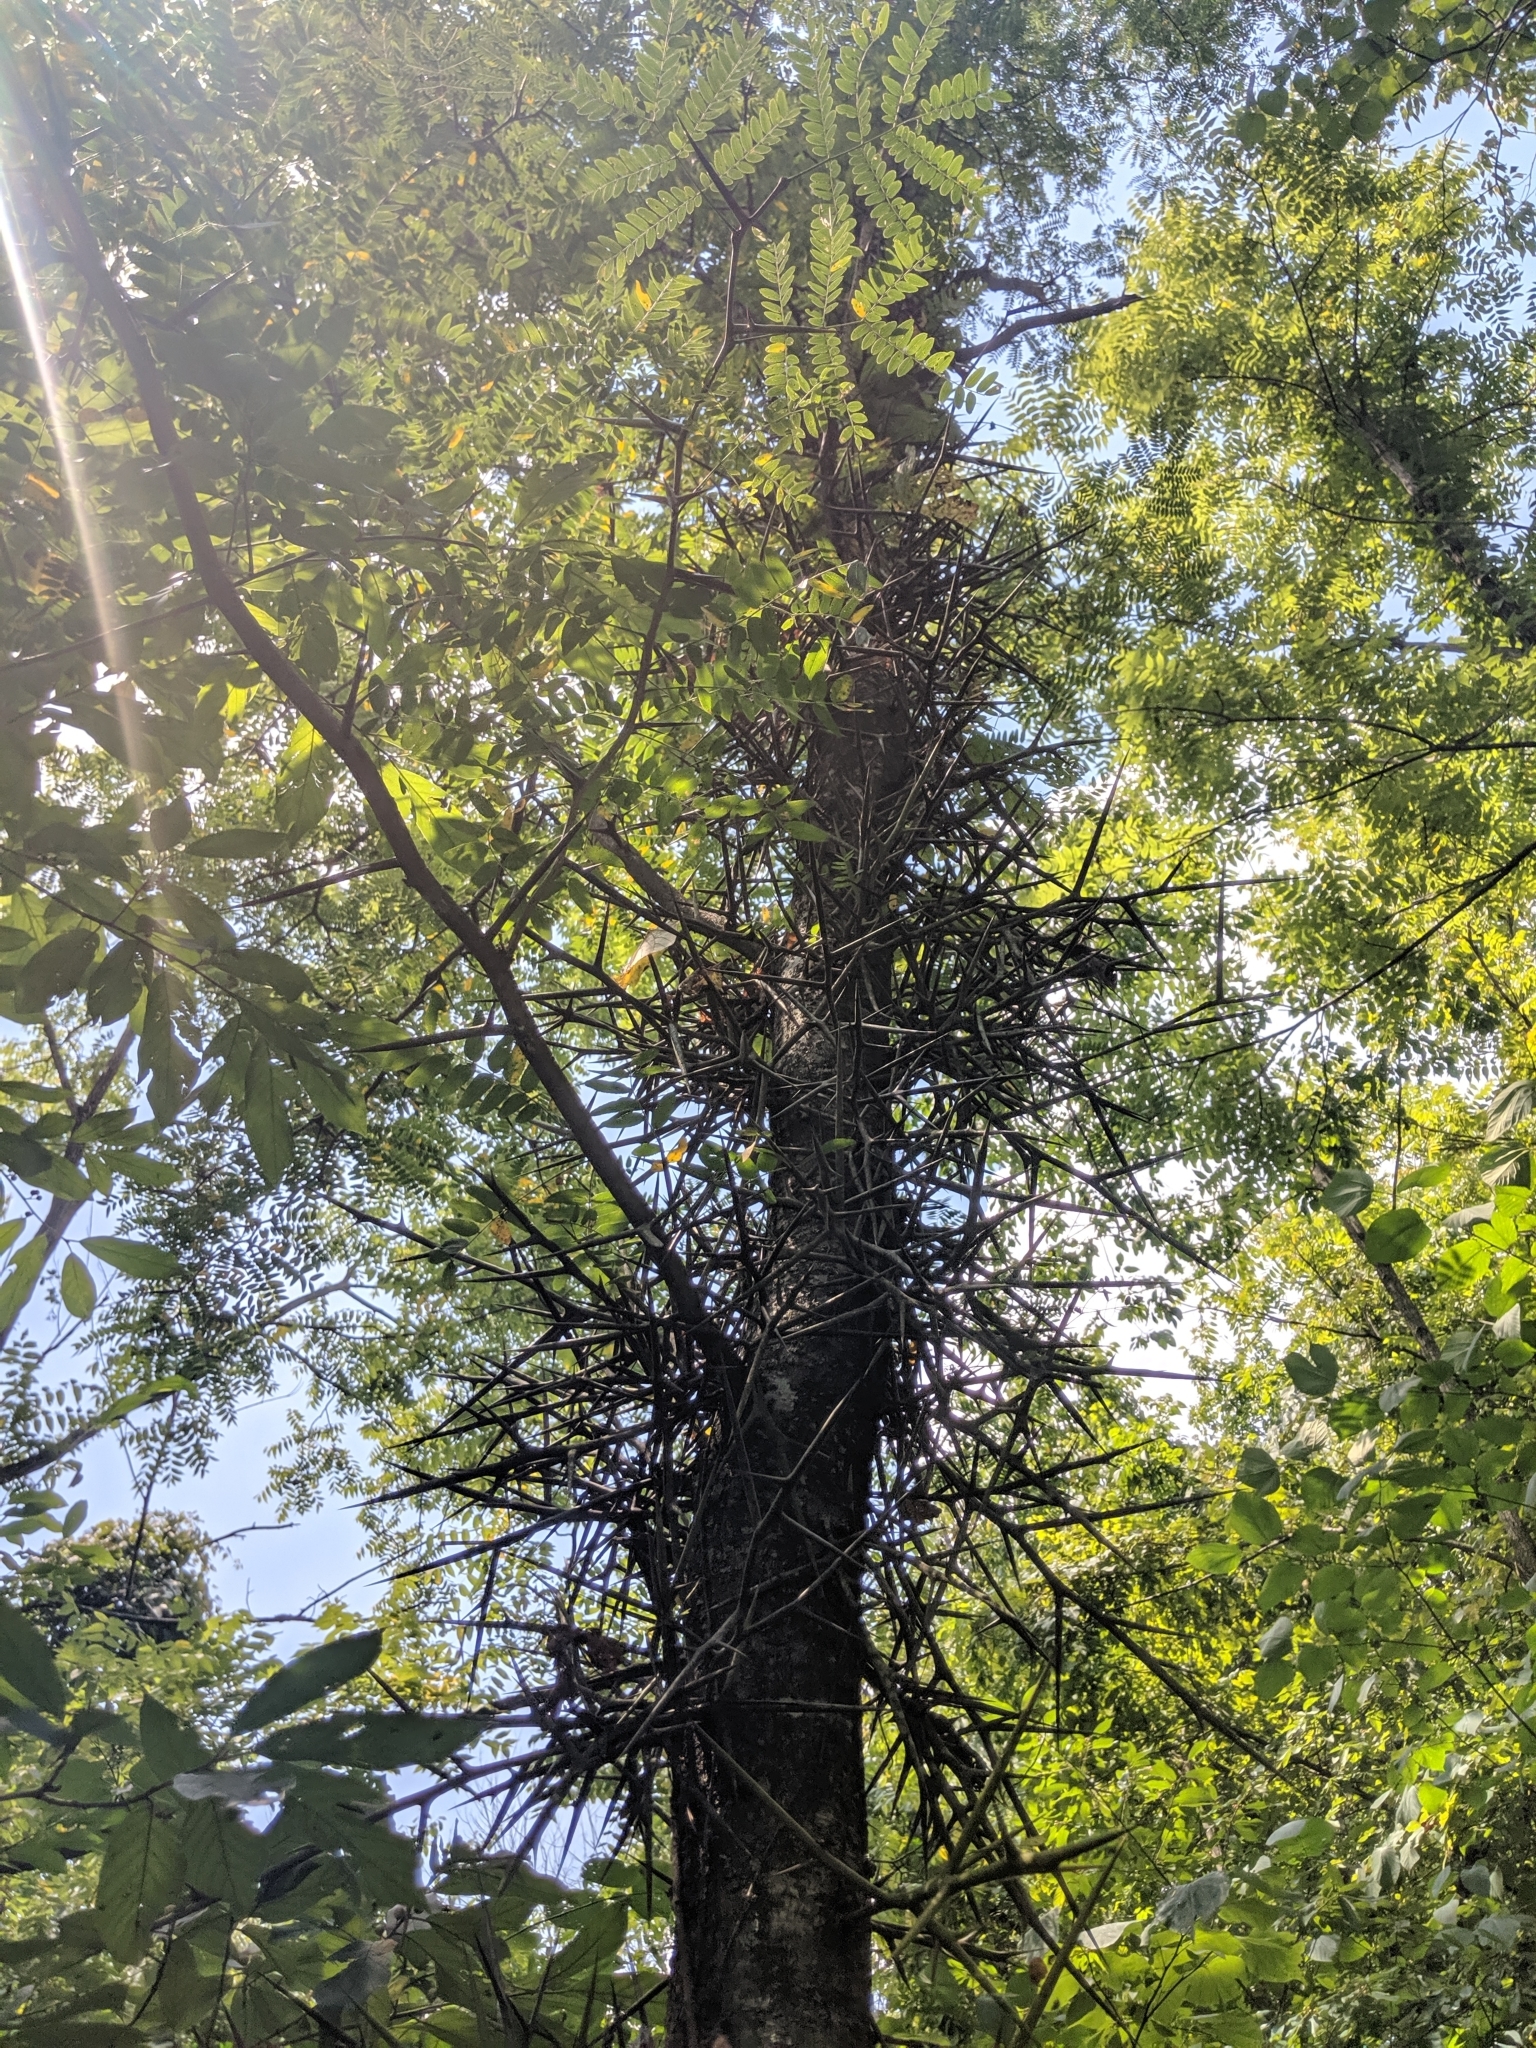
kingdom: Plantae
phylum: Tracheophyta
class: Magnoliopsida
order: Fabales
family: Fabaceae
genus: Gleditsia
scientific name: Gleditsia triacanthos
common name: Common honeylocust
